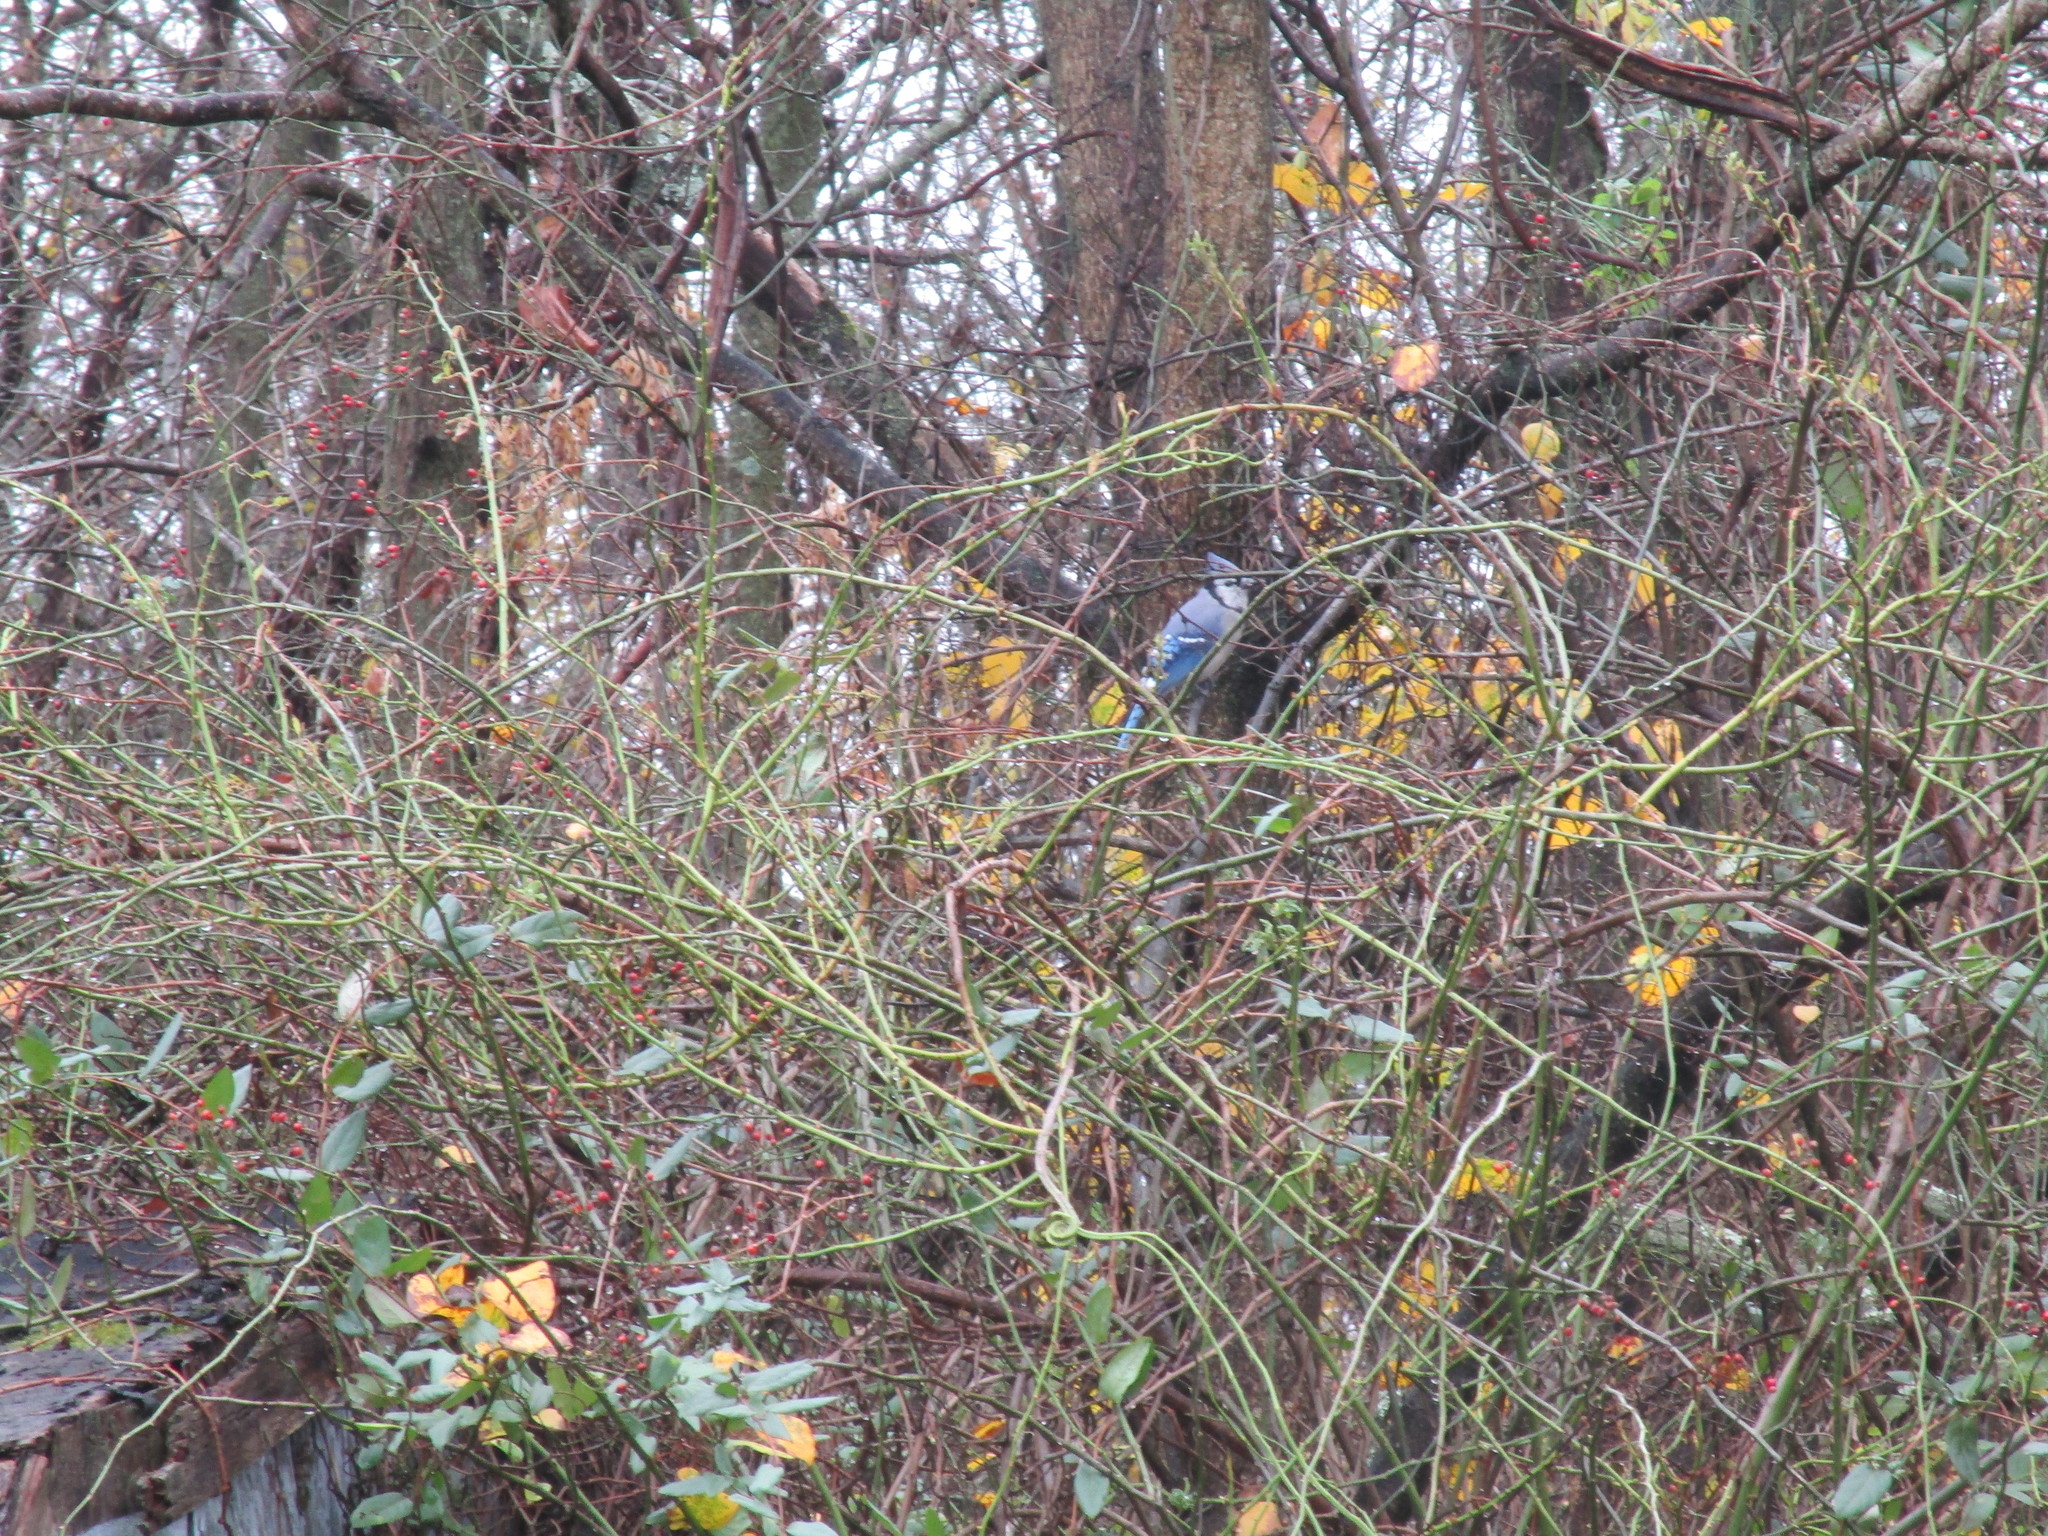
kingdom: Animalia
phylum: Chordata
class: Aves
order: Passeriformes
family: Corvidae
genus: Cyanocitta
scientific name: Cyanocitta cristata
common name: Blue jay
